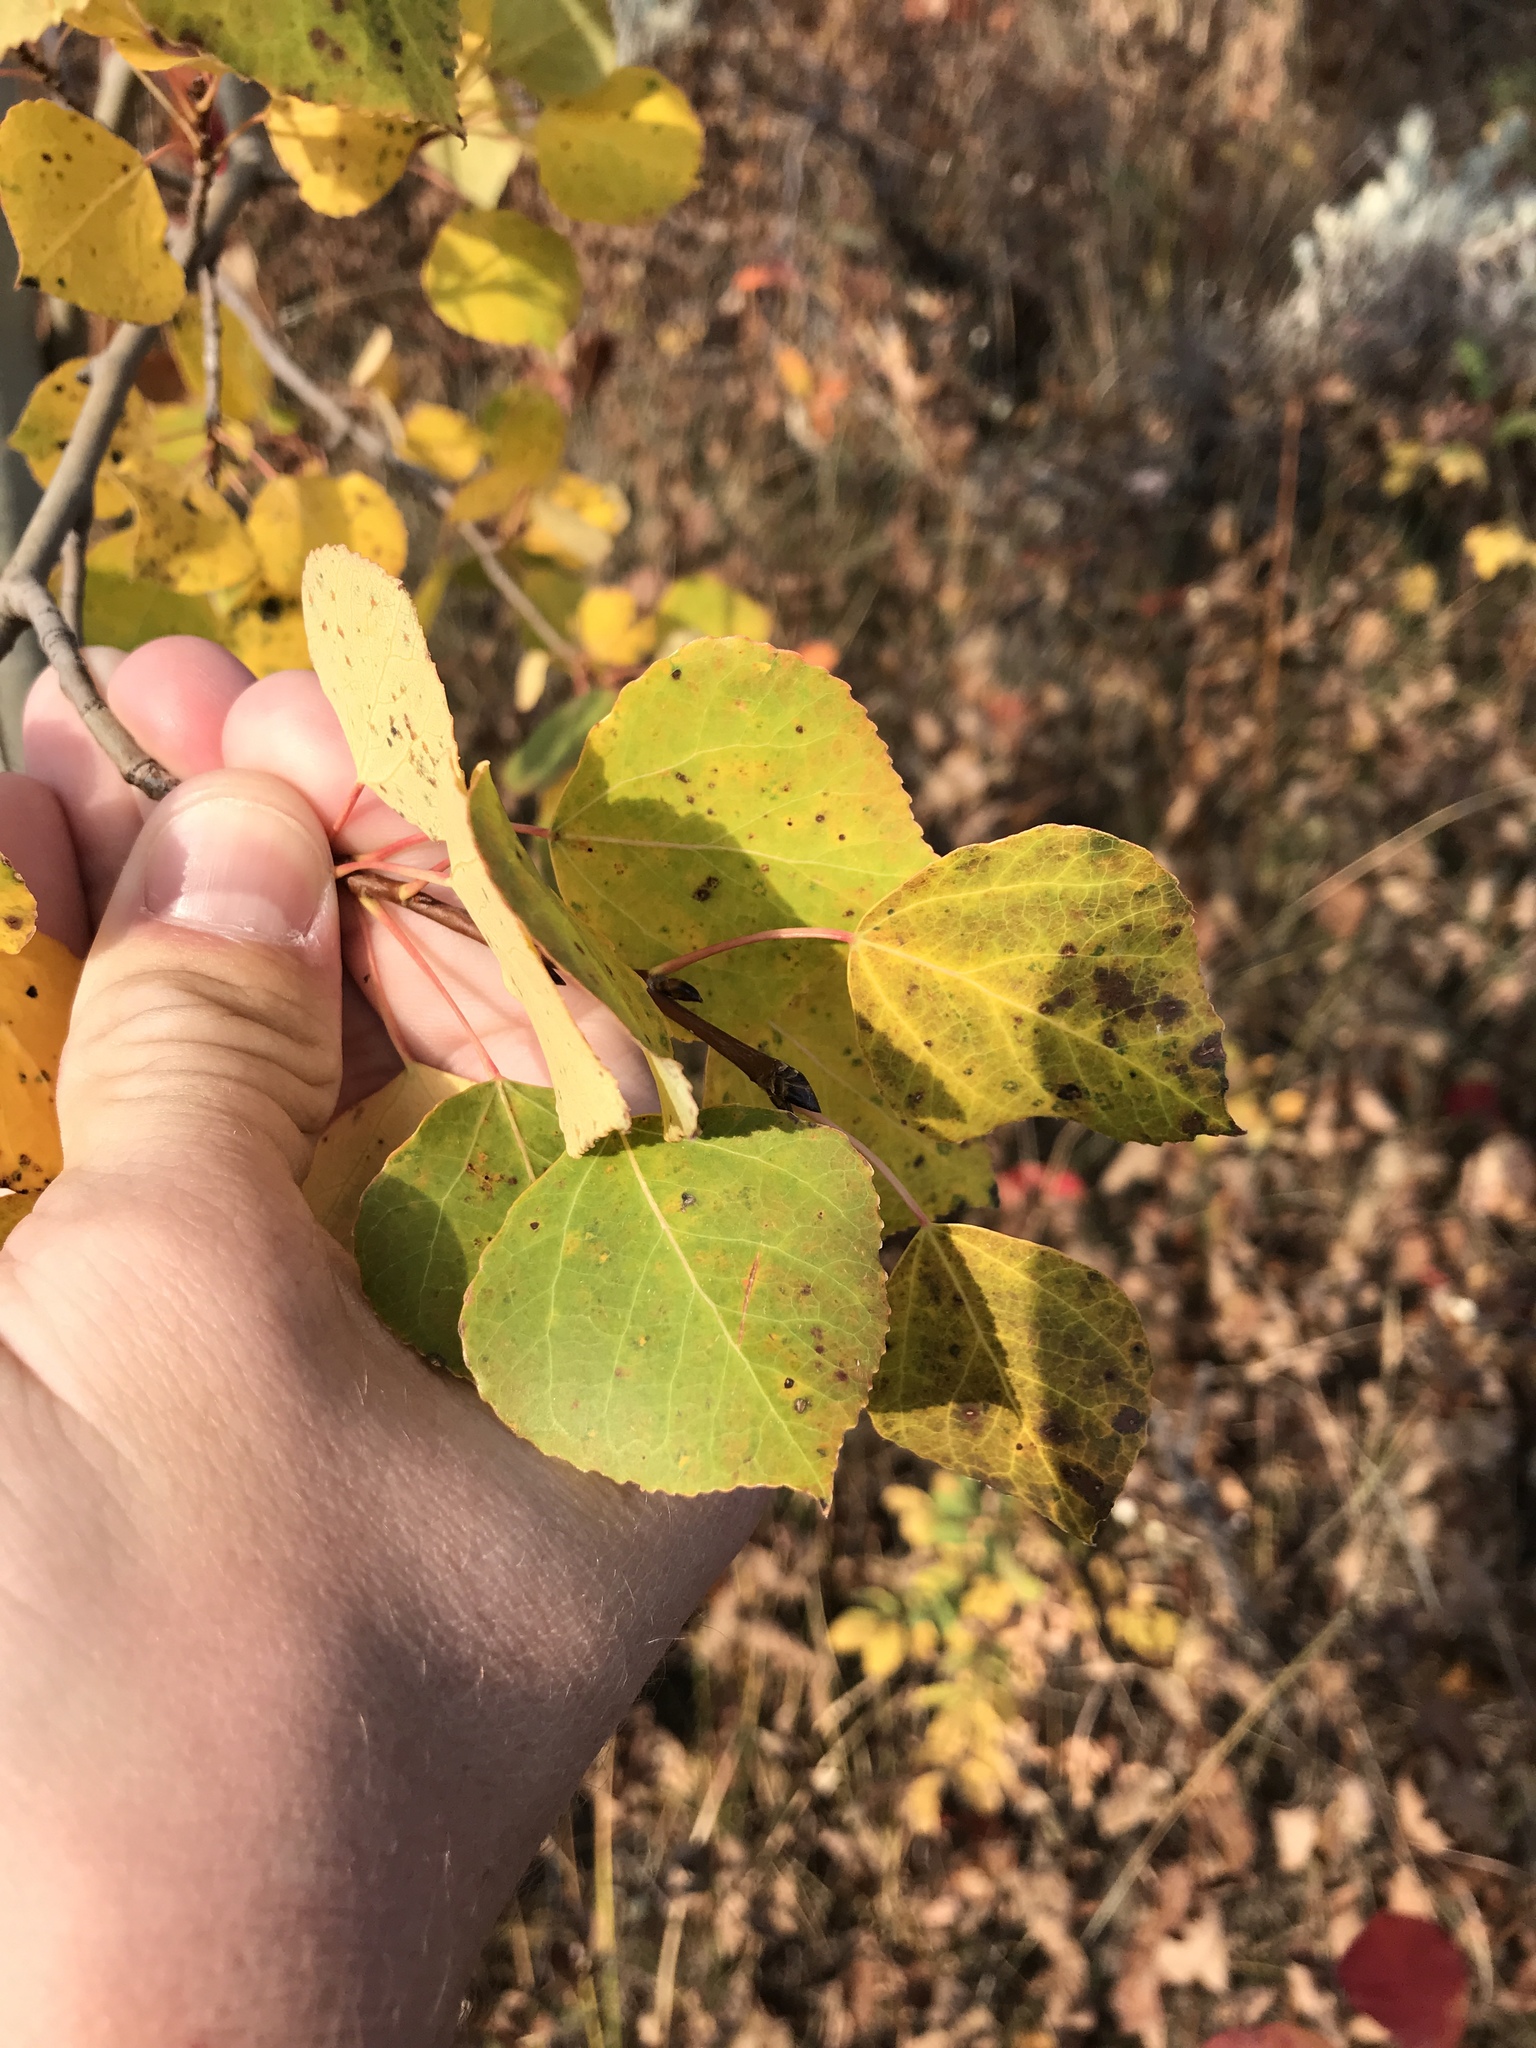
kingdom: Plantae
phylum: Tracheophyta
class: Magnoliopsida
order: Malpighiales
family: Salicaceae
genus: Populus
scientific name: Populus tremuloides
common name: Quaking aspen
